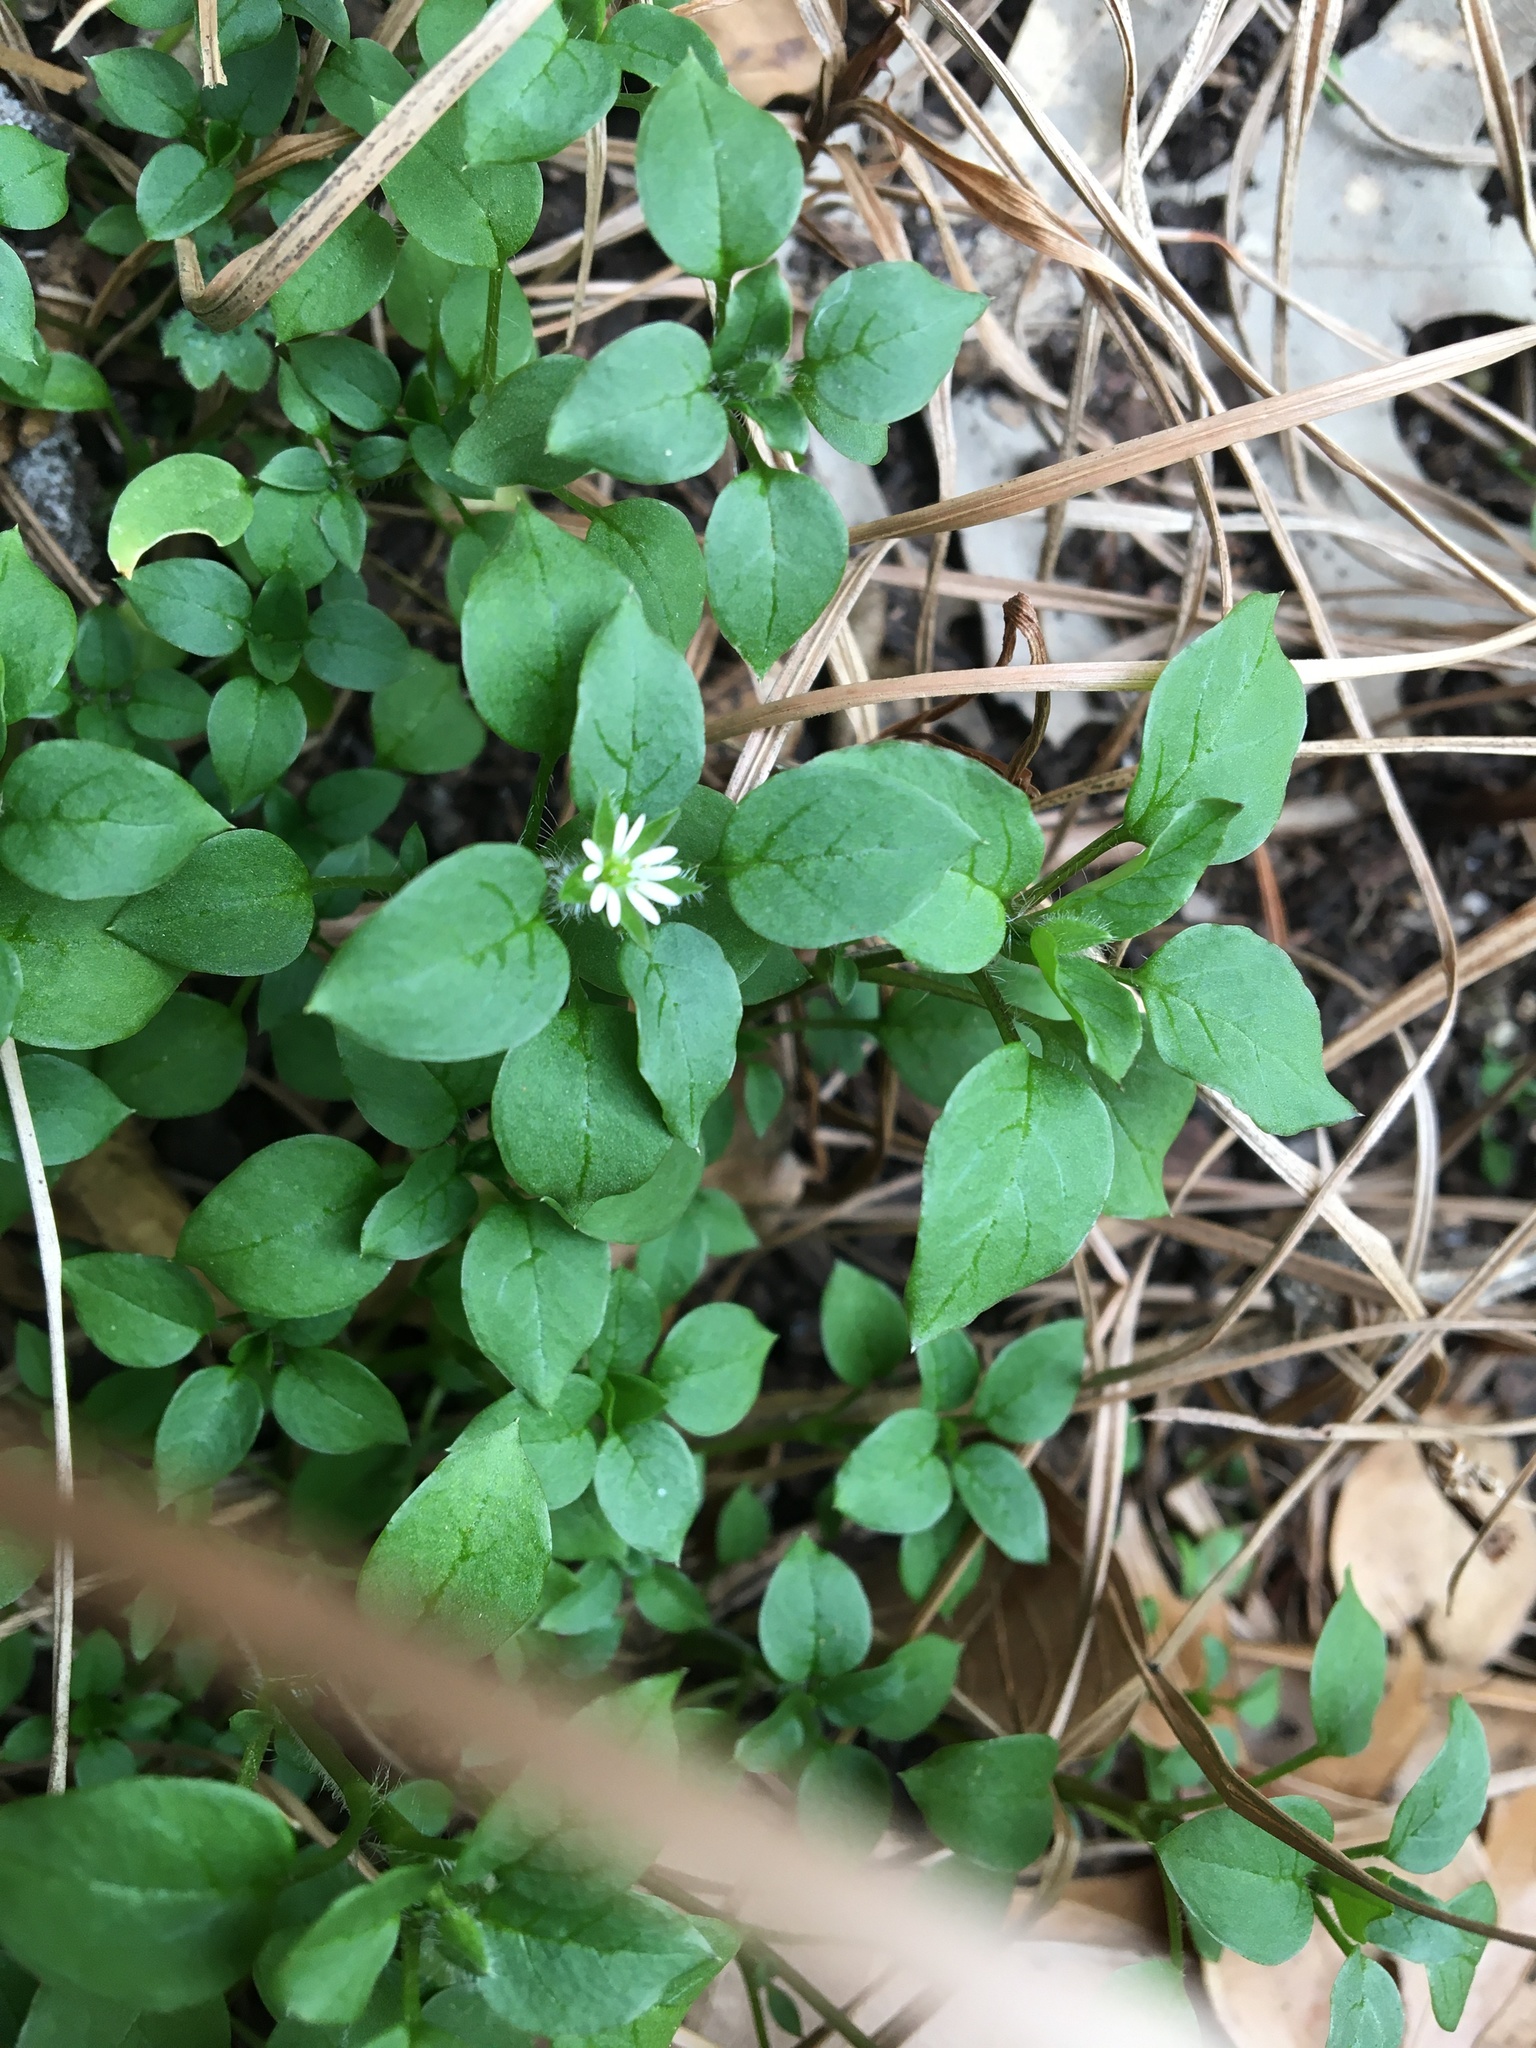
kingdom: Plantae
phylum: Tracheophyta
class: Magnoliopsida
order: Caryophyllales
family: Caryophyllaceae
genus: Stellaria
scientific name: Stellaria media
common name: Common chickweed
